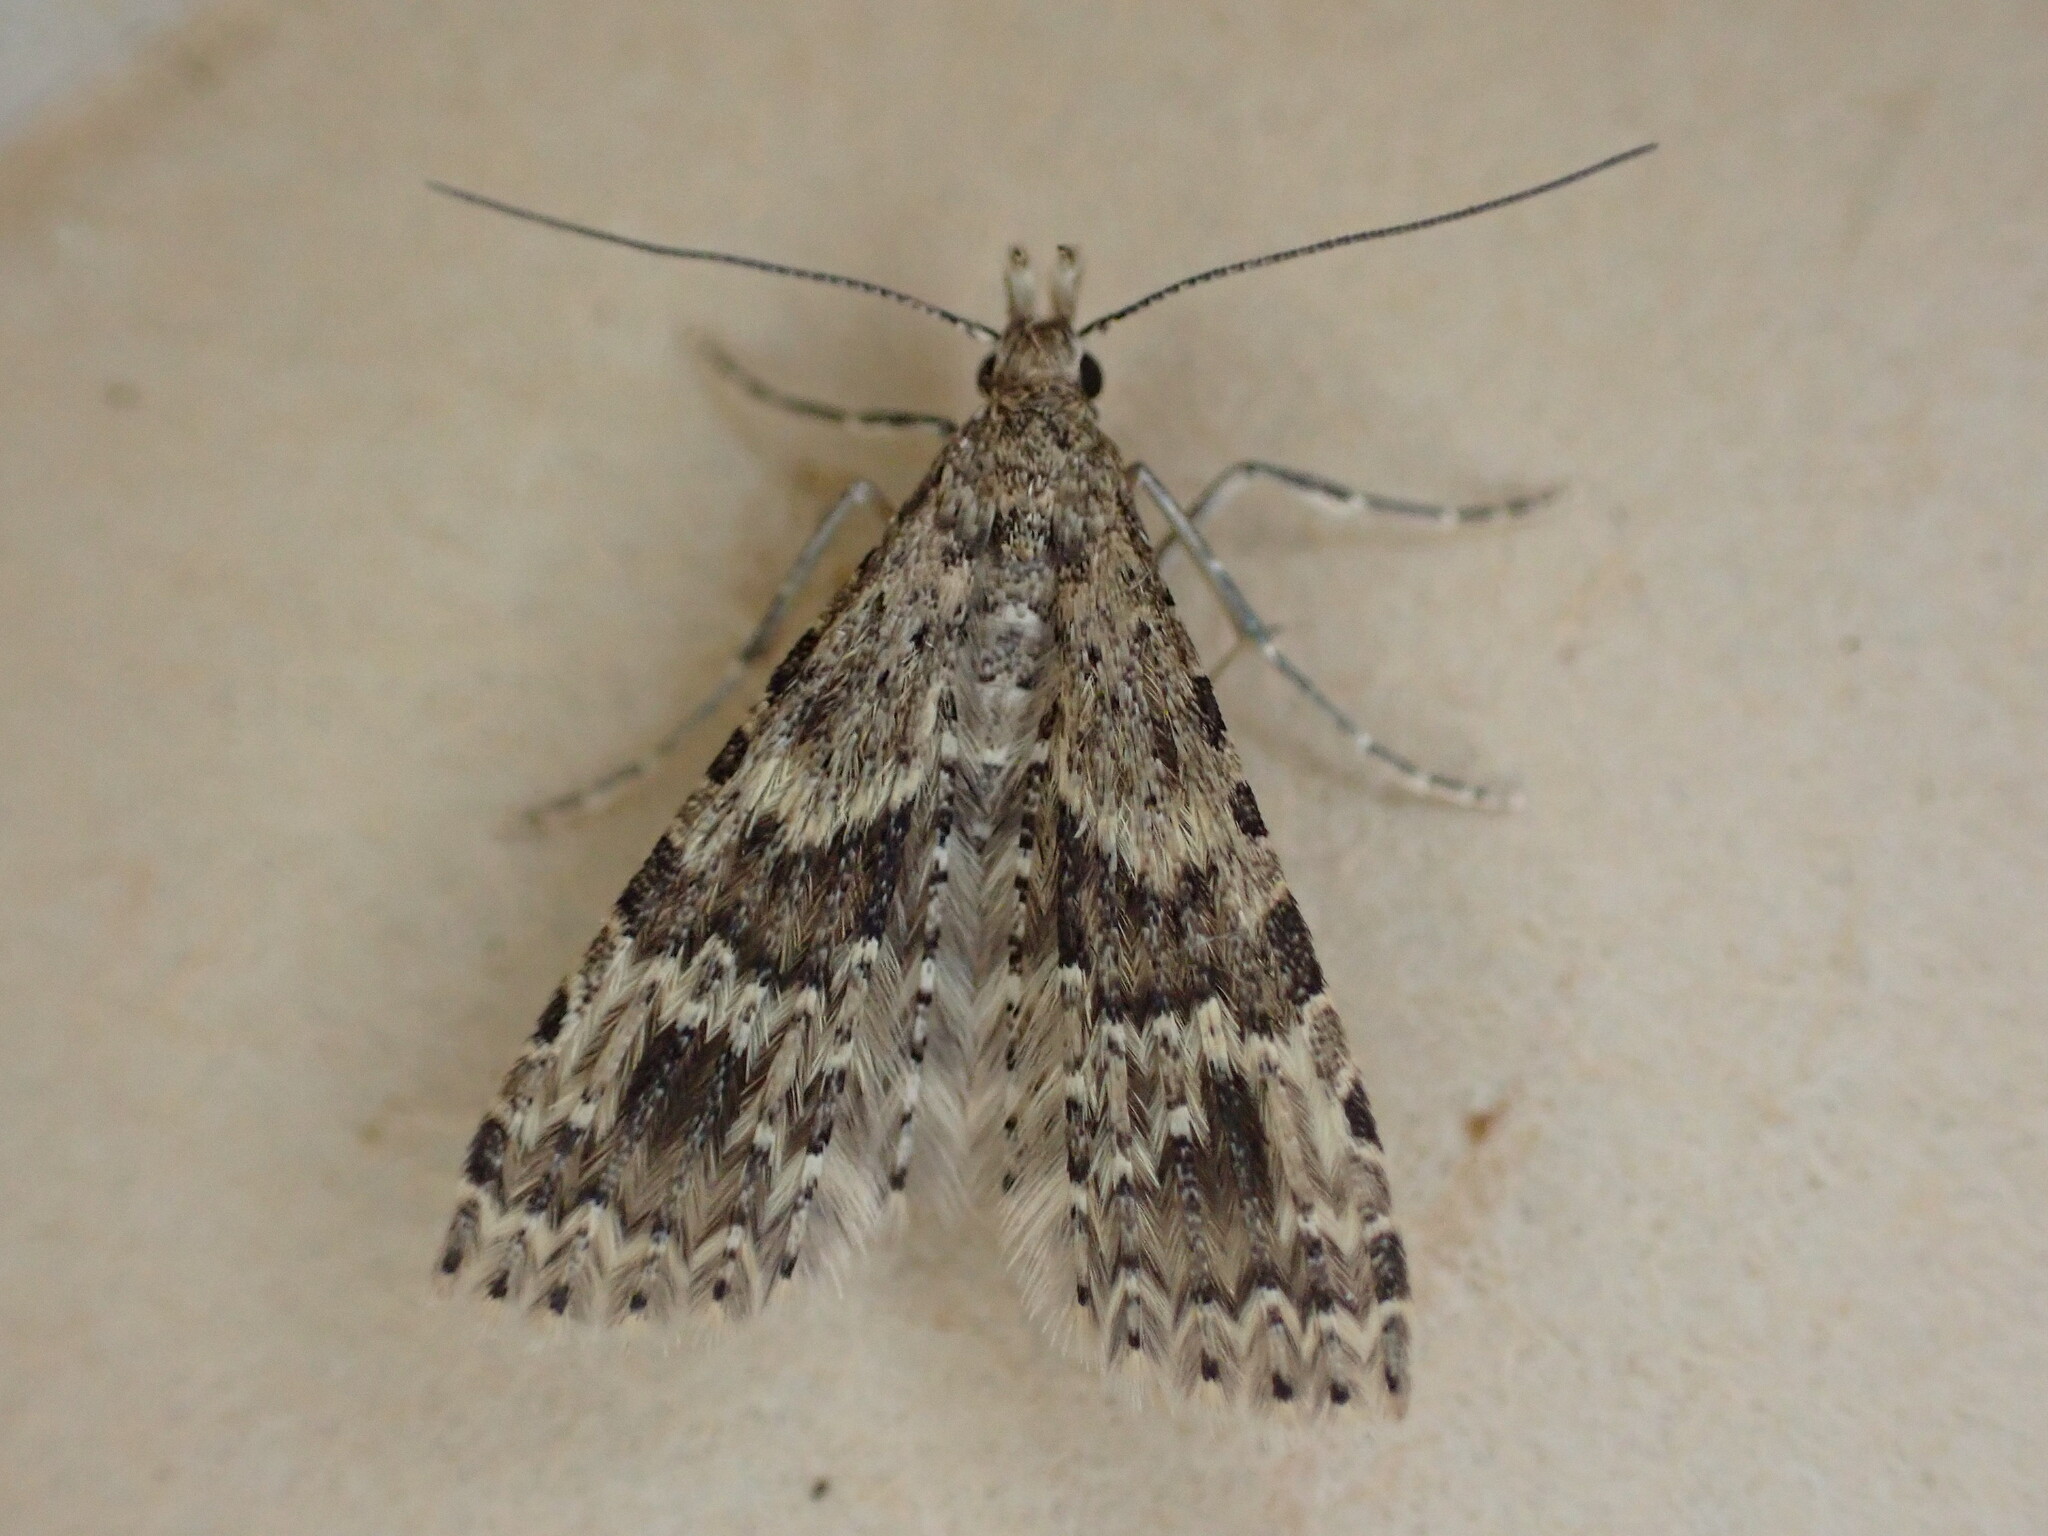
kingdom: Animalia
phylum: Arthropoda
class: Insecta
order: Lepidoptera
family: Alucitidae
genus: Alucita
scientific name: Alucita hexadactyla
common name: Twenty-plume moth
